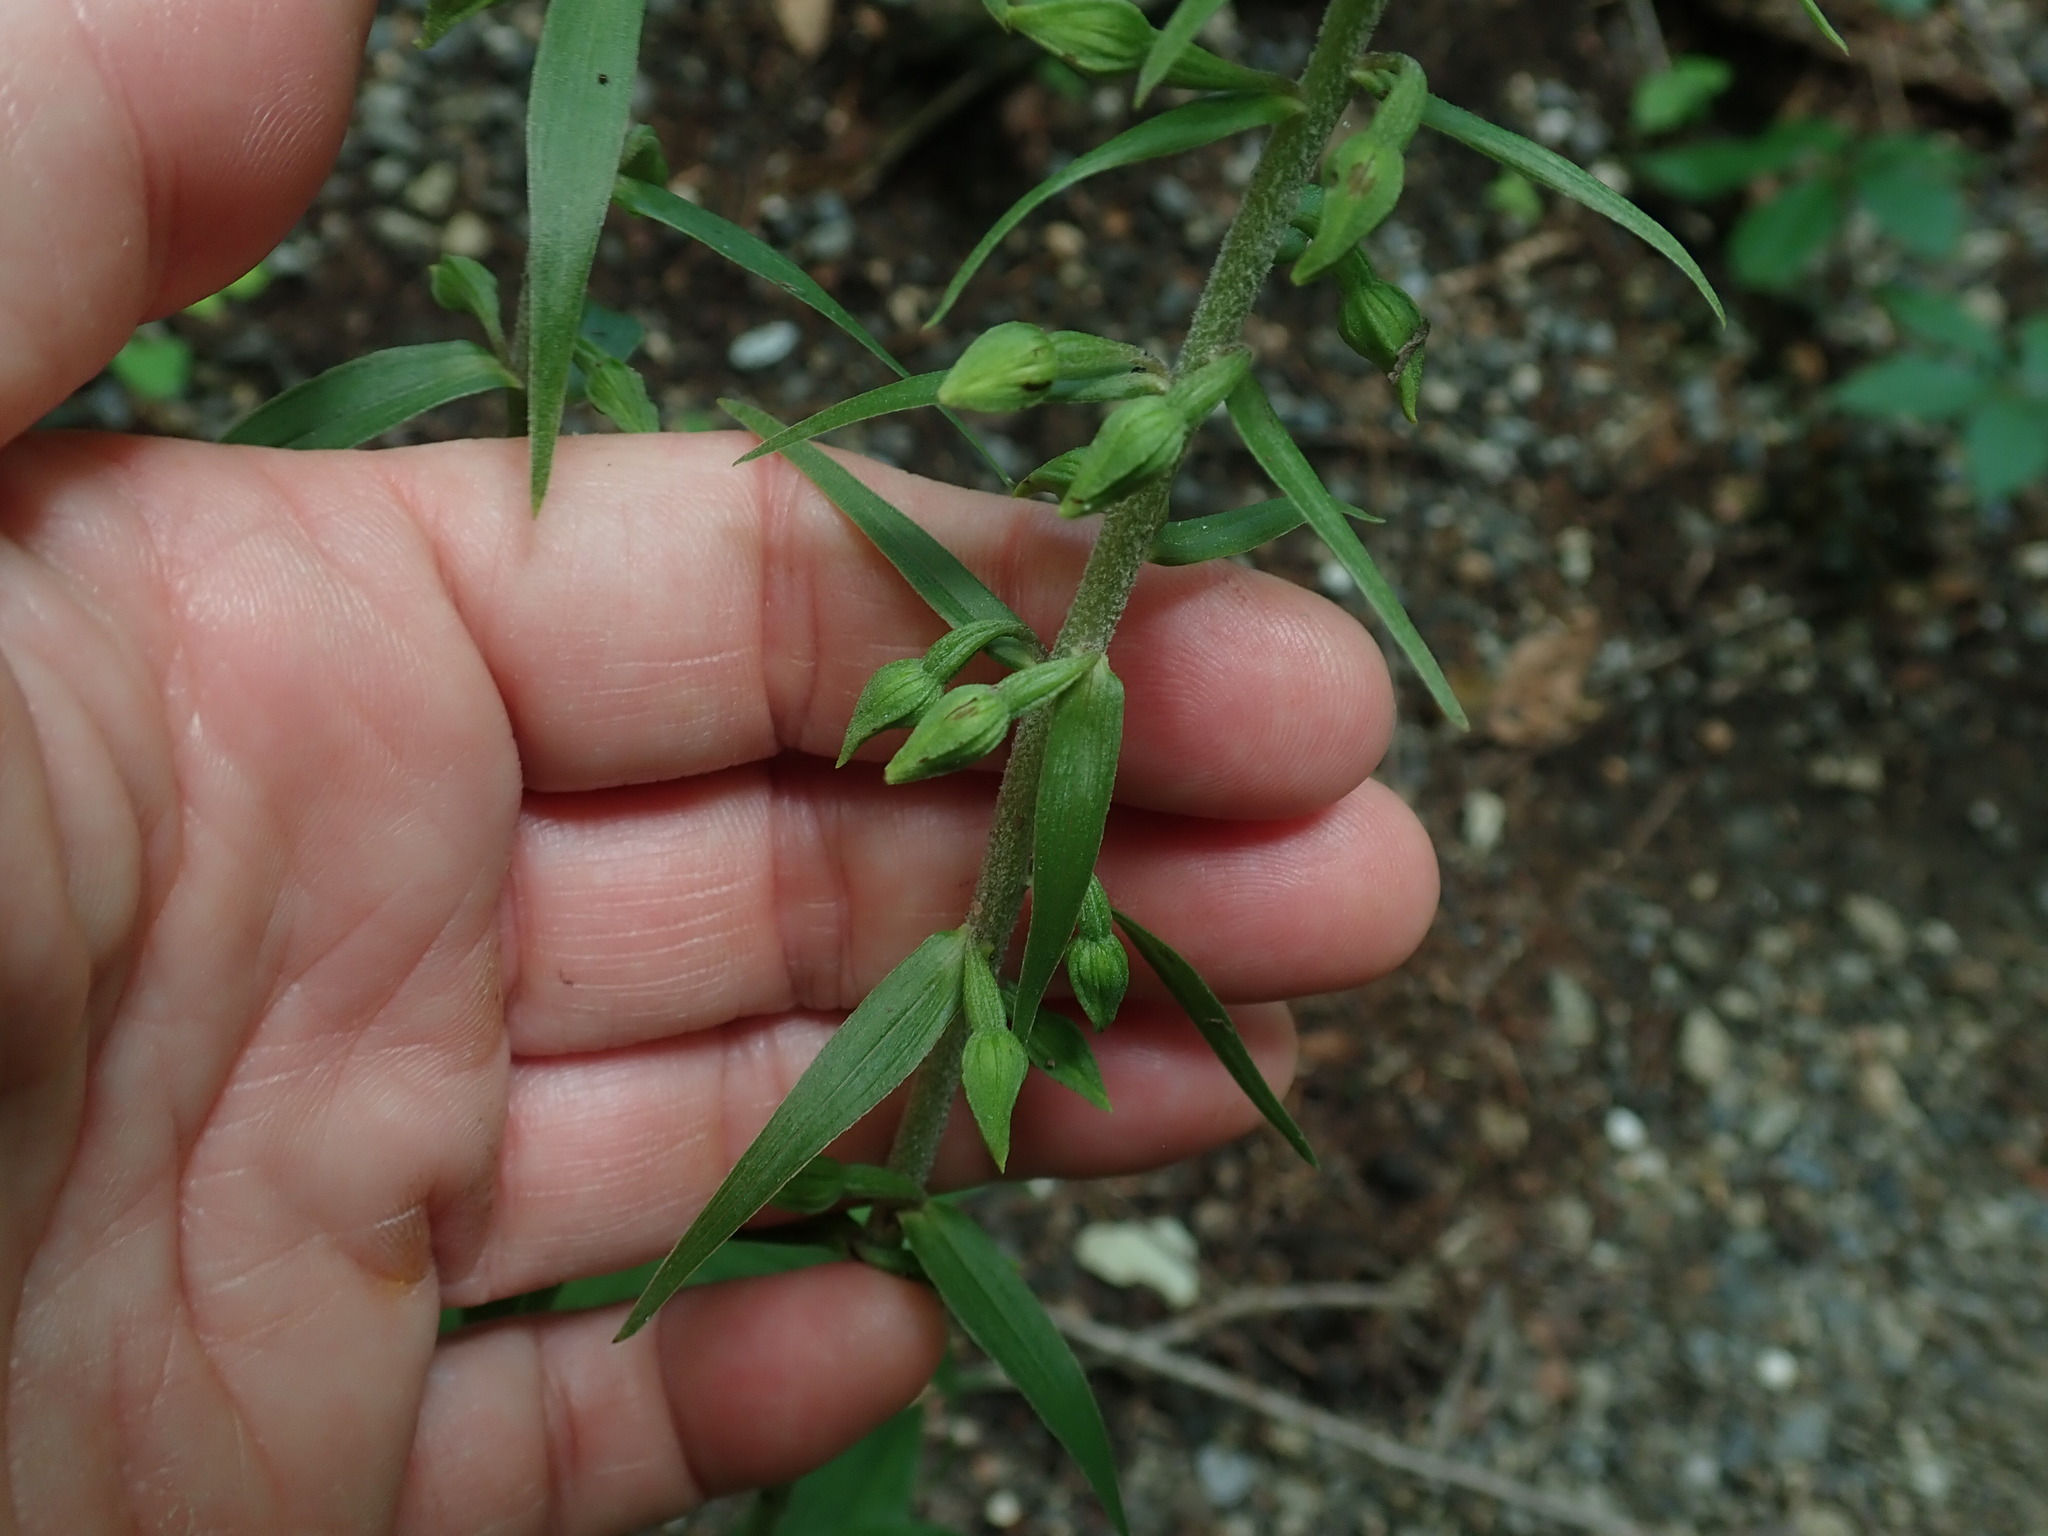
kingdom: Plantae
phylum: Tracheophyta
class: Liliopsida
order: Asparagales
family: Orchidaceae
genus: Epipactis
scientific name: Epipactis helleborine
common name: Broad-leaved helleborine
